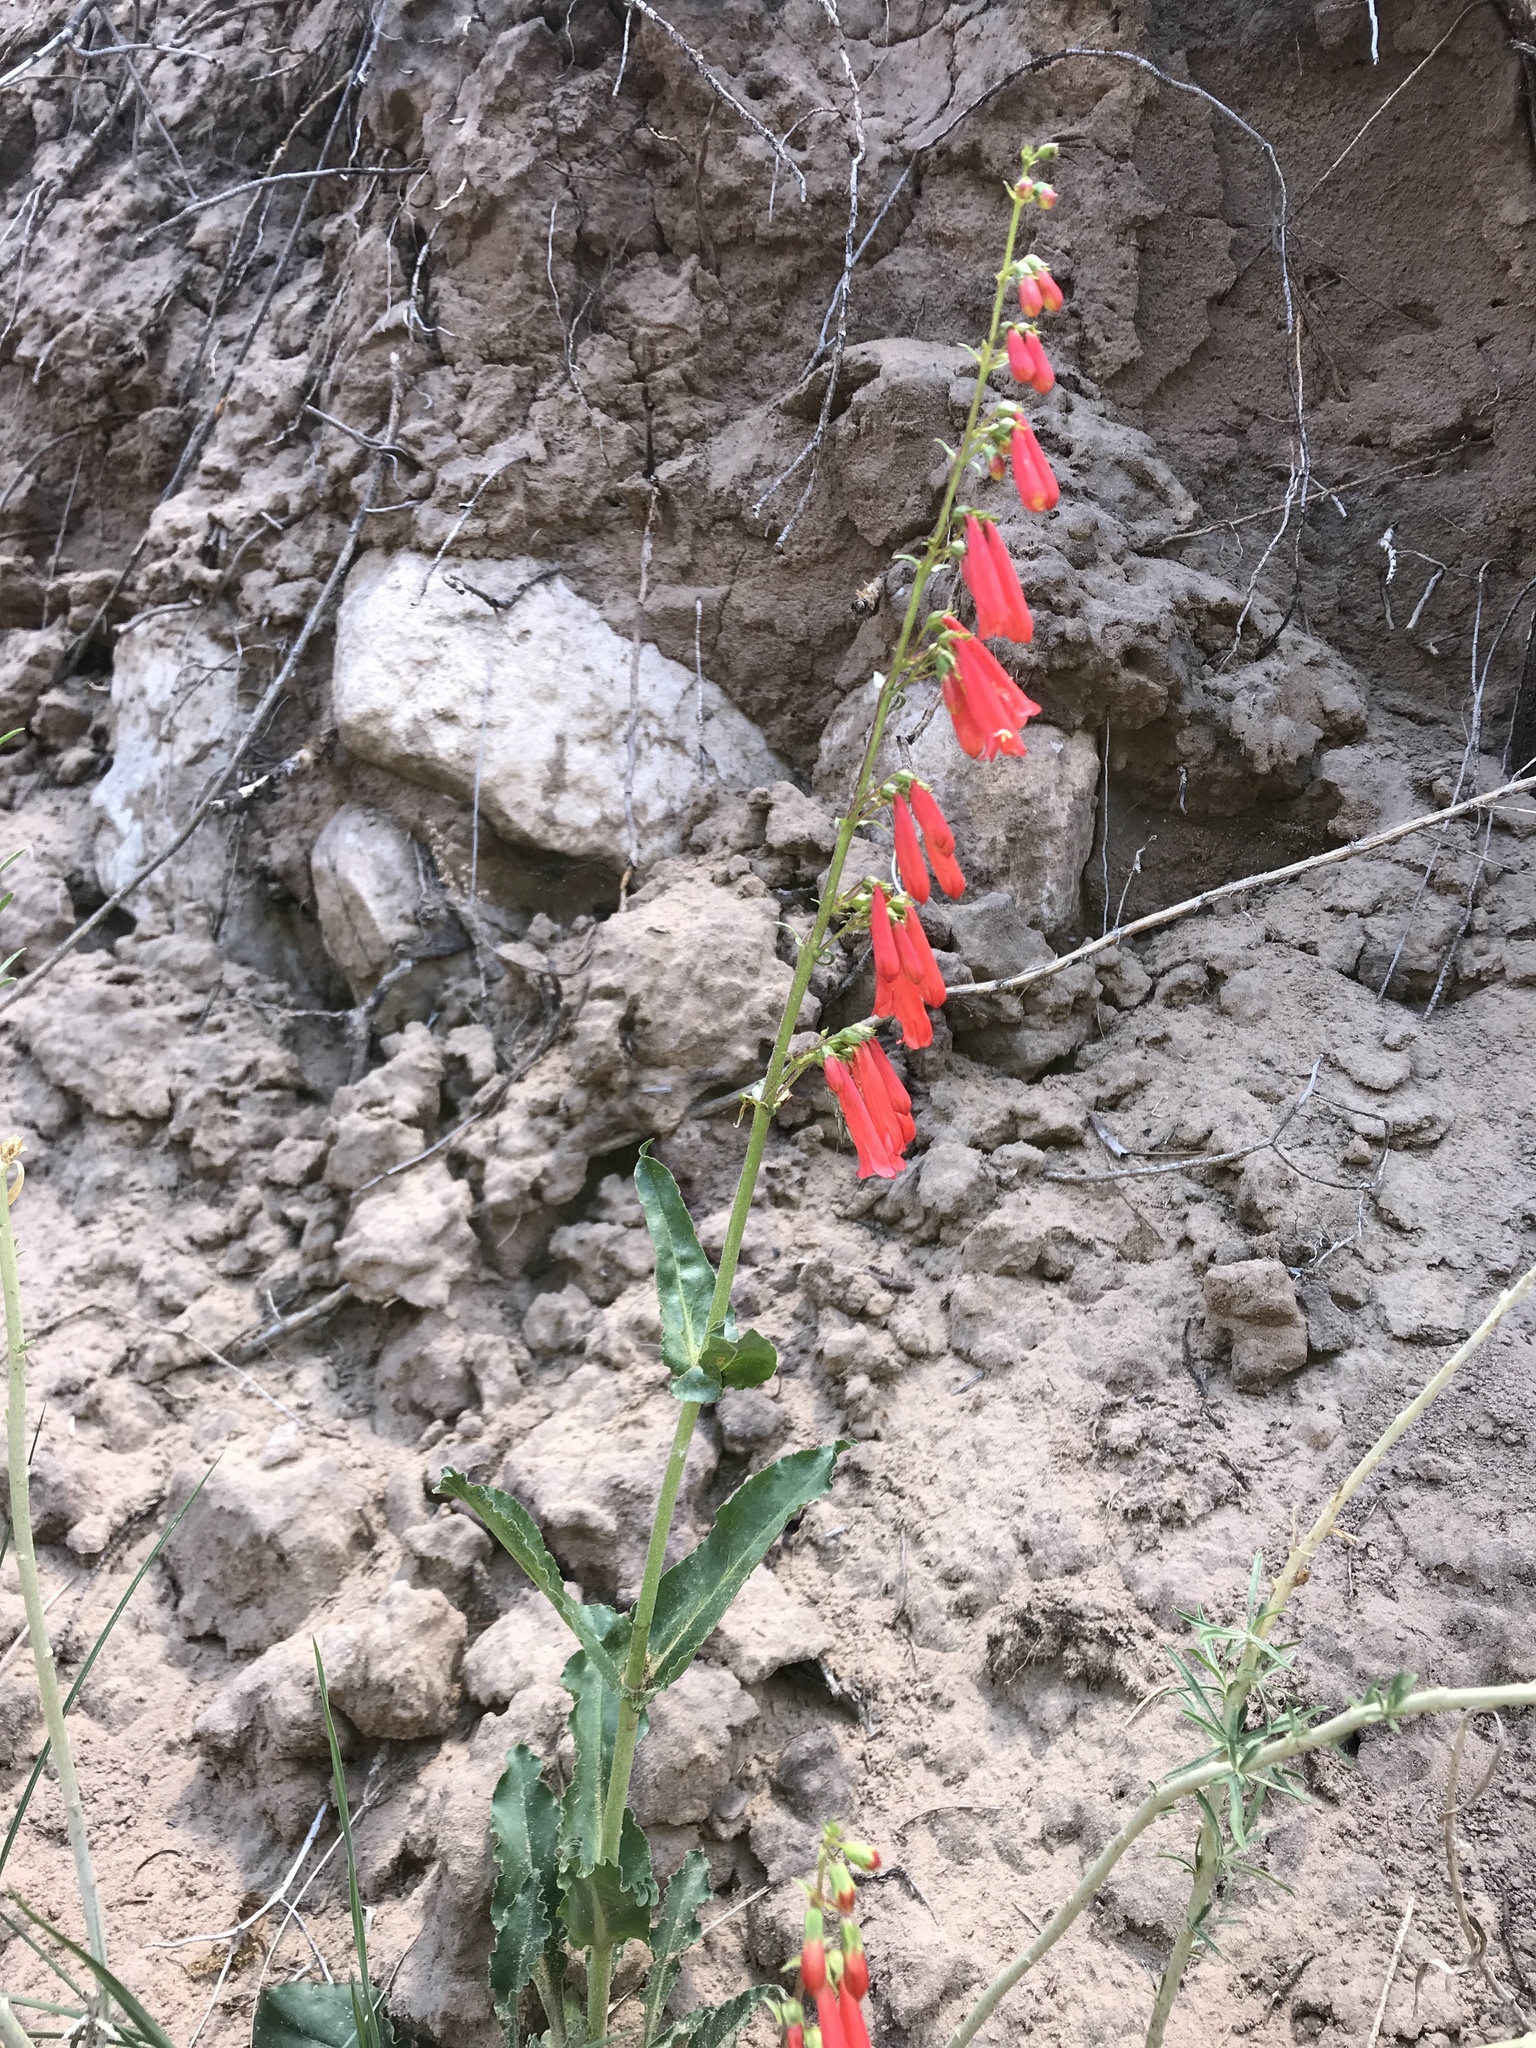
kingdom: Plantae
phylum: Tracheophyta
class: Magnoliopsida
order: Lamiales
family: Plantaginaceae
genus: Penstemon
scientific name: Penstemon eatonii
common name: Eaton's penstemon
